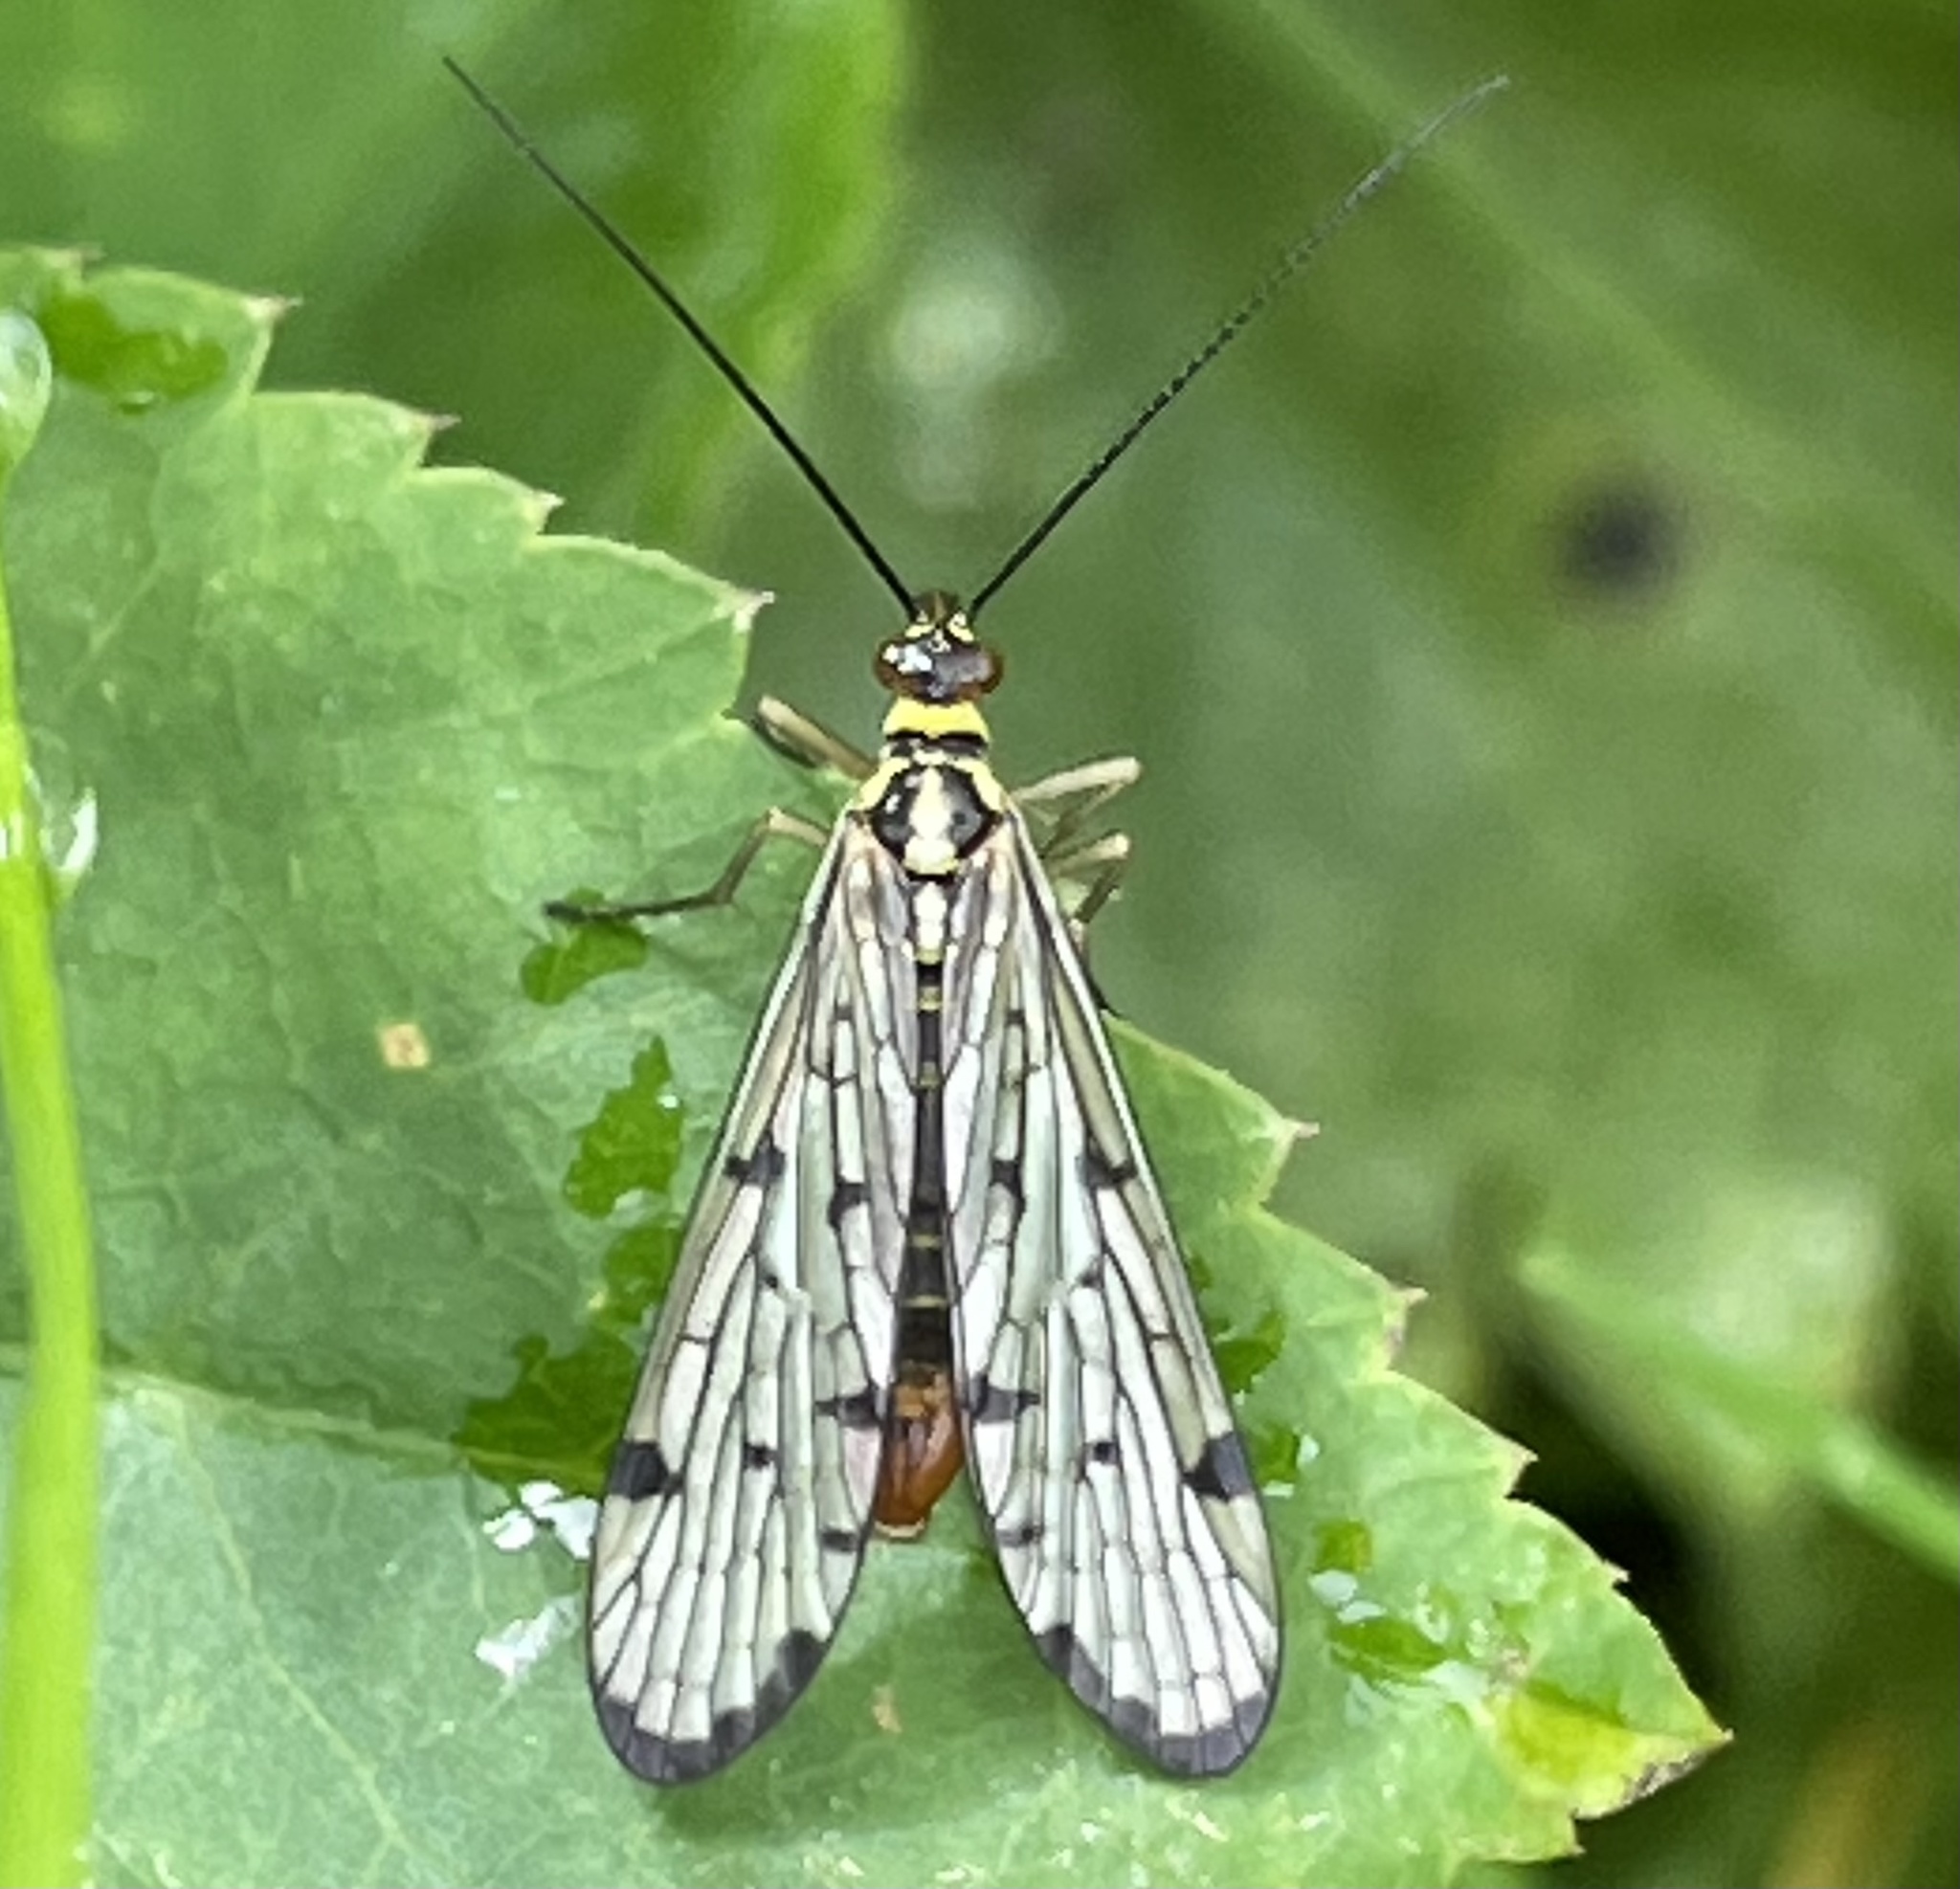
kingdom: Animalia
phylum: Arthropoda
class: Insecta
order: Mecoptera
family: Panorpidae
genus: Panorpa
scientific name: Panorpa germanica
